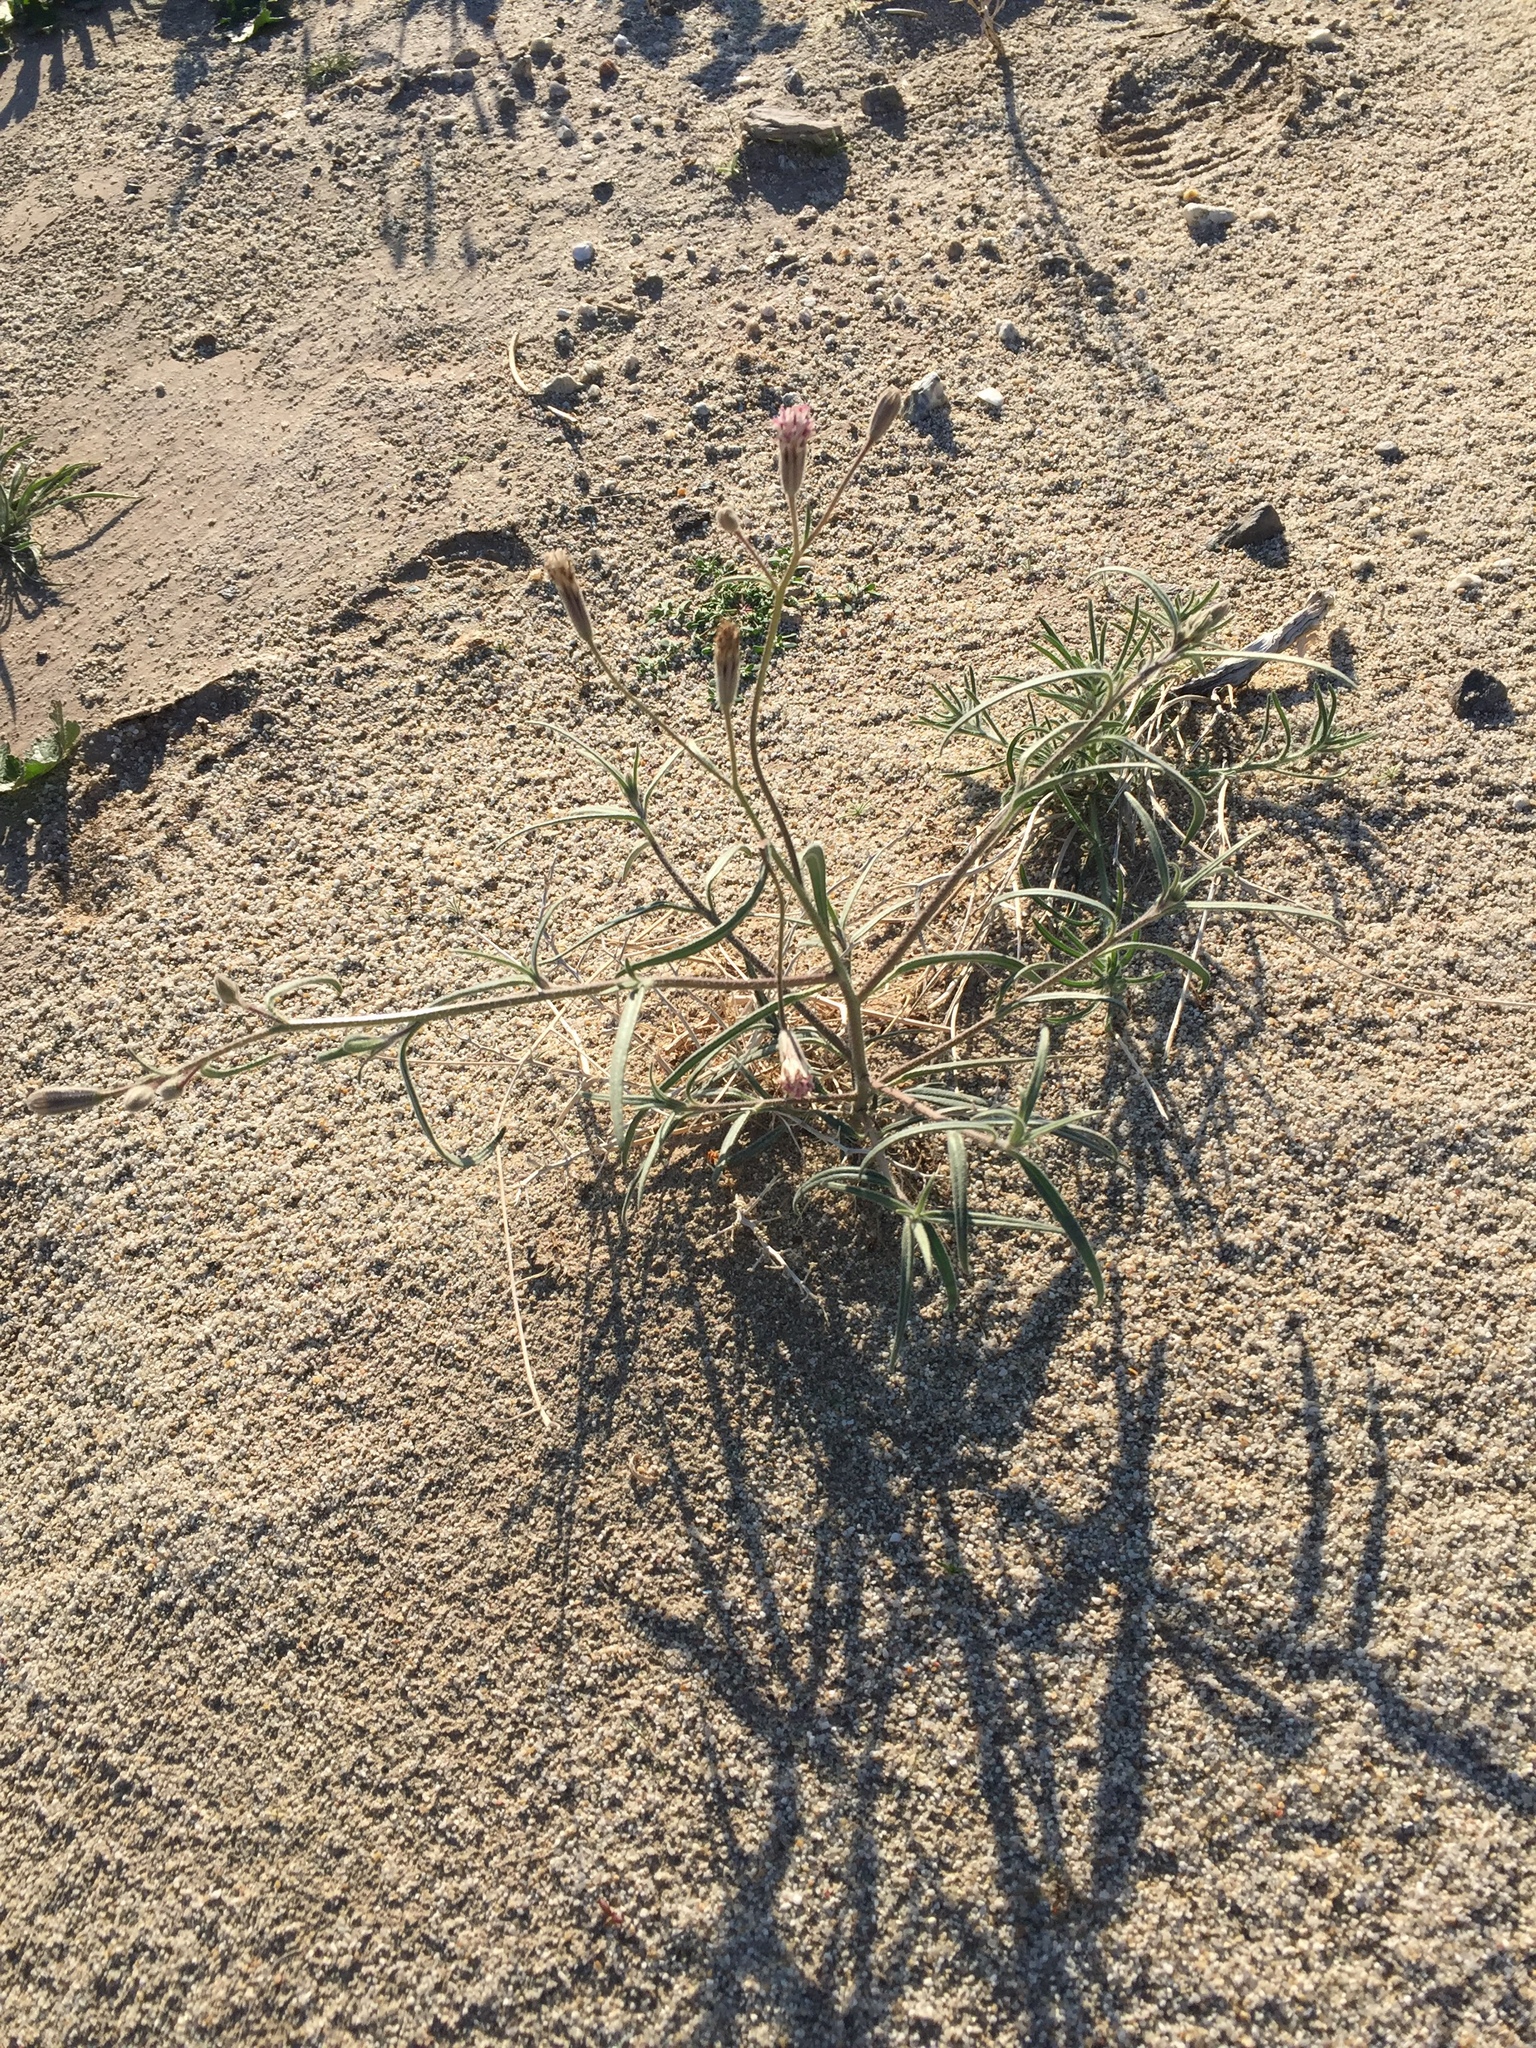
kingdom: Plantae
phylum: Tracheophyta
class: Magnoliopsida
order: Asterales
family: Asteraceae
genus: Palafoxia
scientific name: Palafoxia arida
